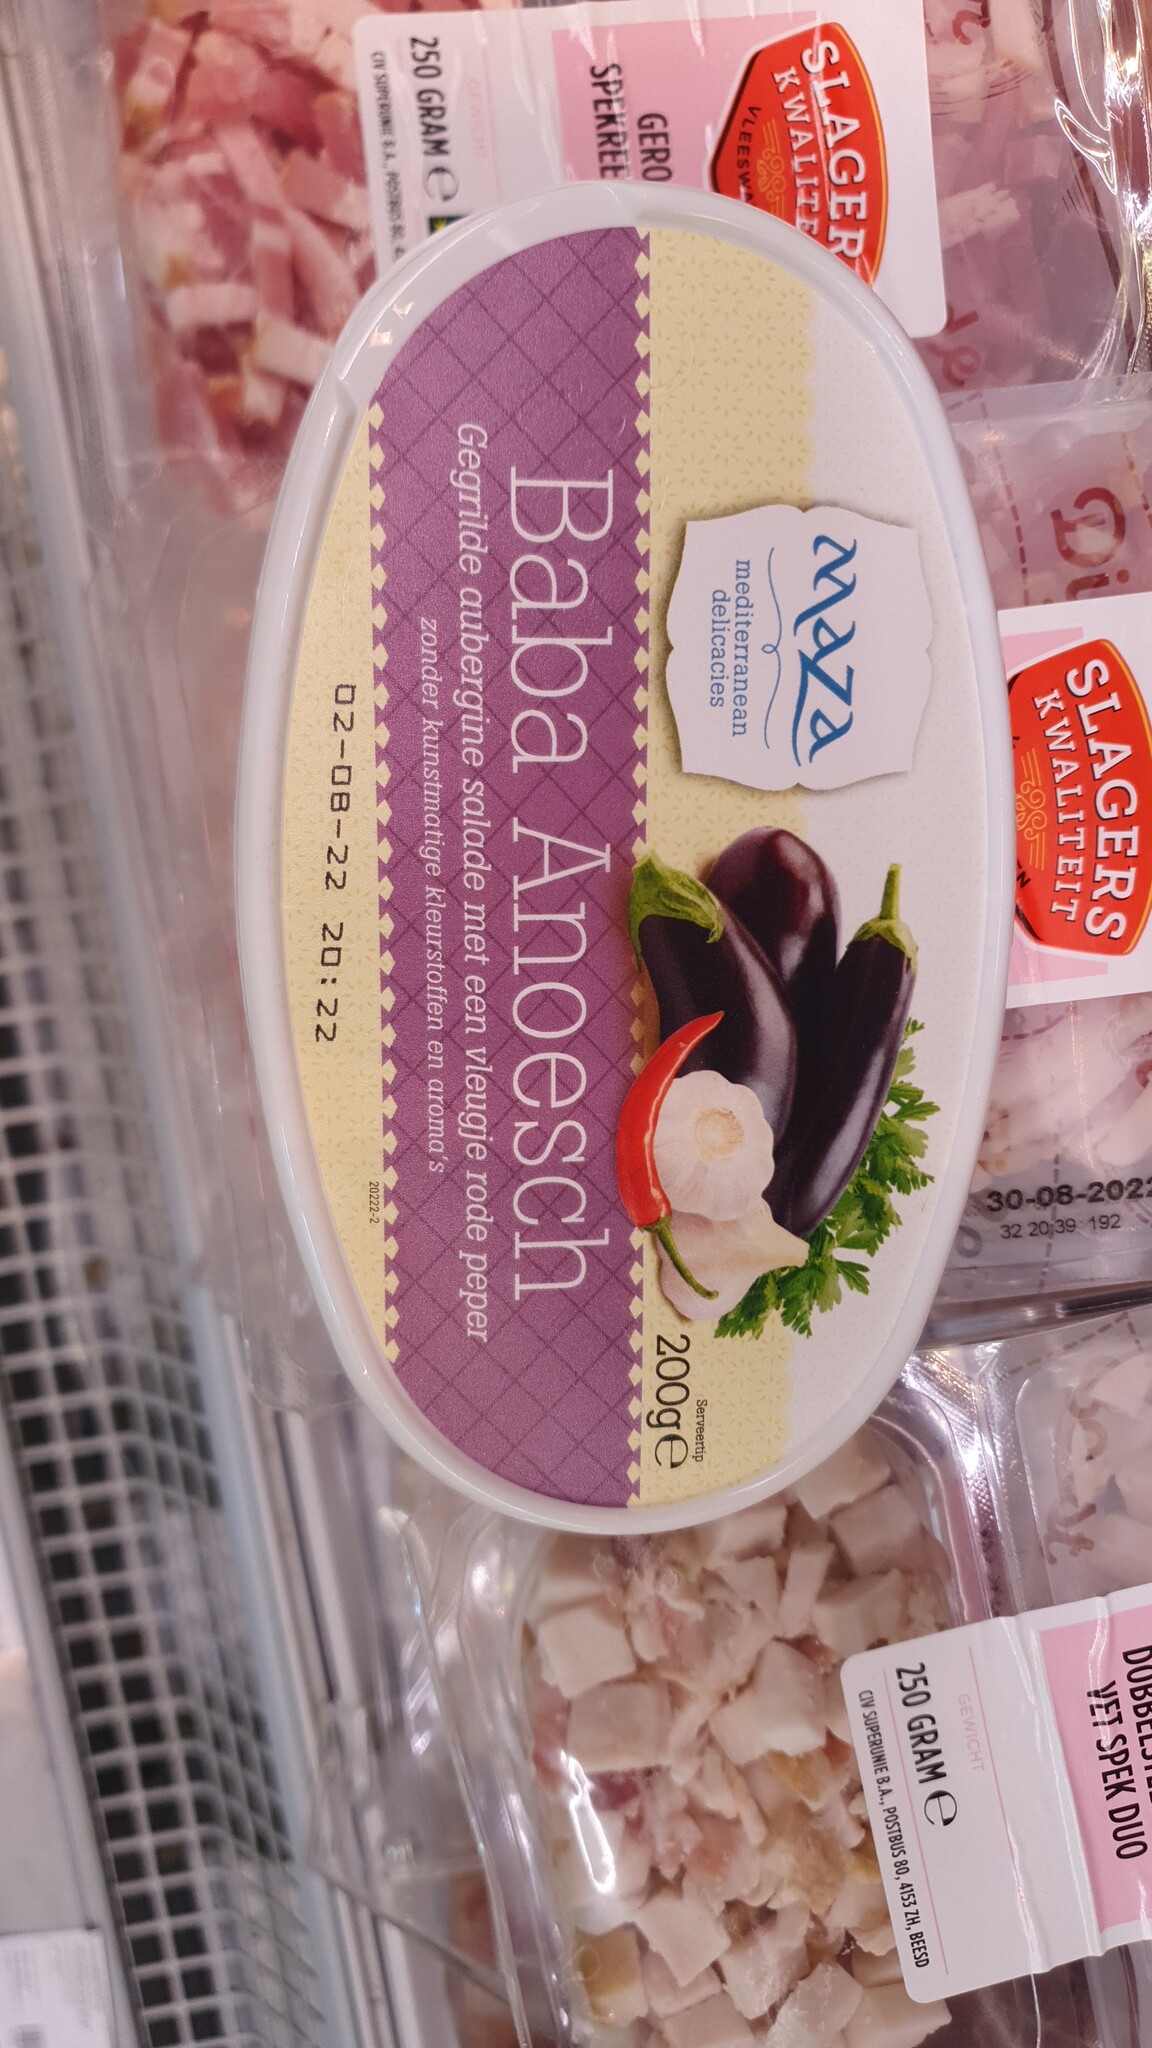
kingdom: Animalia
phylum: Arthropoda
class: Insecta
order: Hymenoptera
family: Vespidae
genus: Vespa
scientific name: Vespa crabro
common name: Hornet
